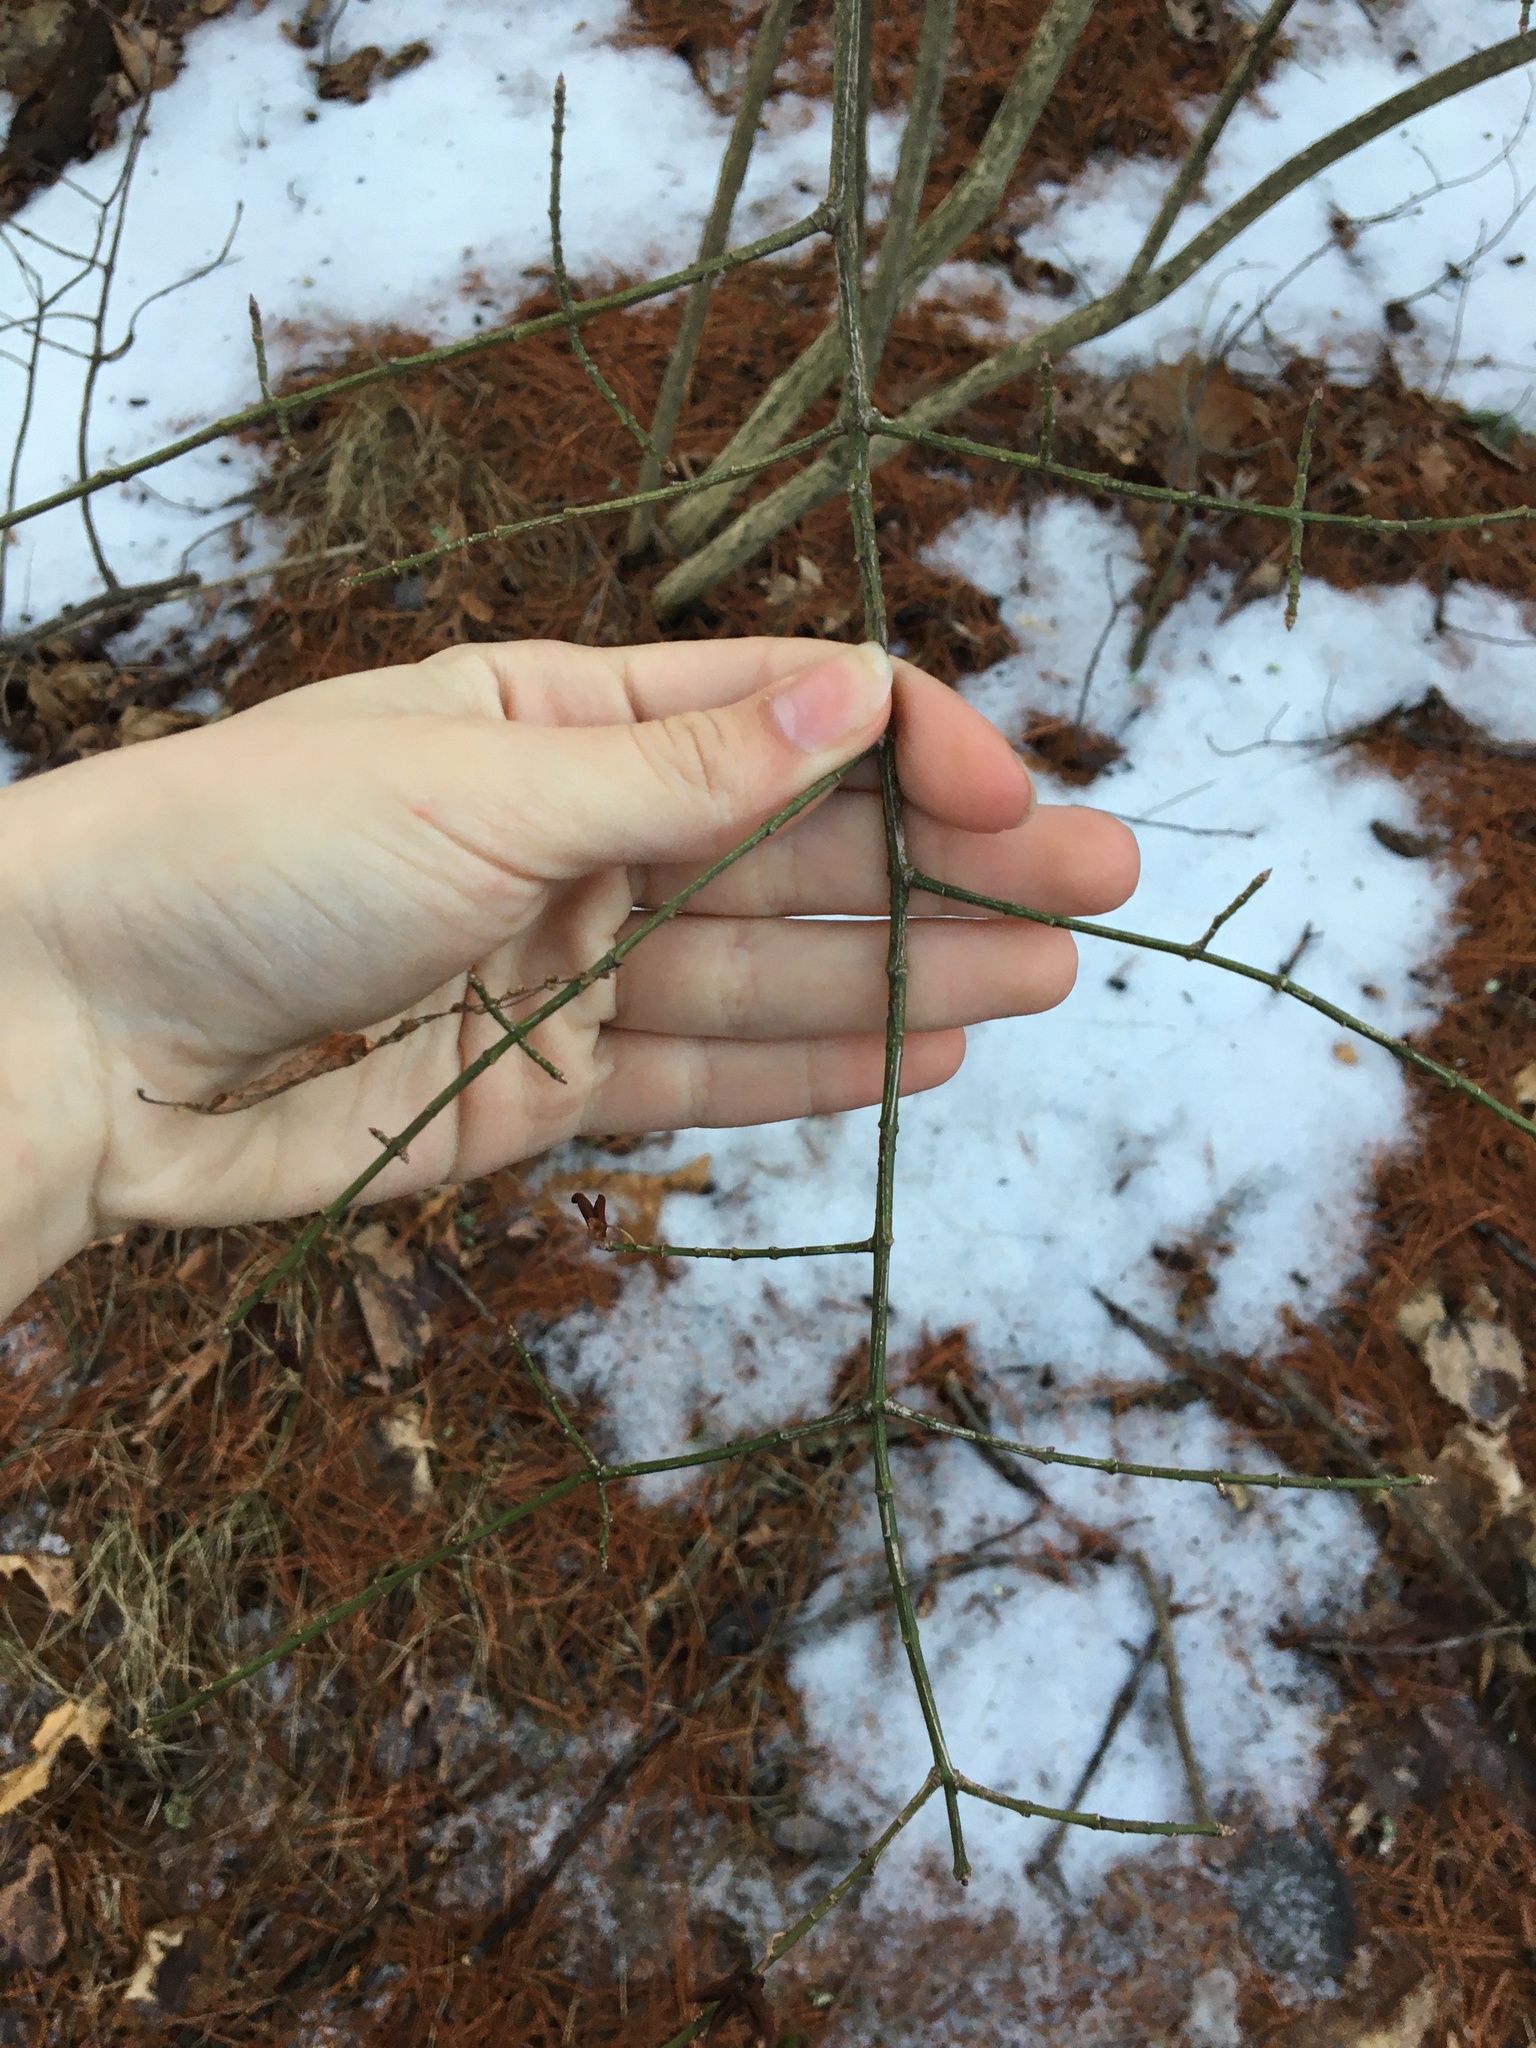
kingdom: Plantae
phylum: Tracheophyta
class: Magnoliopsida
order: Celastrales
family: Celastraceae
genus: Euonymus
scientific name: Euonymus alatus
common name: Winged euonymus
